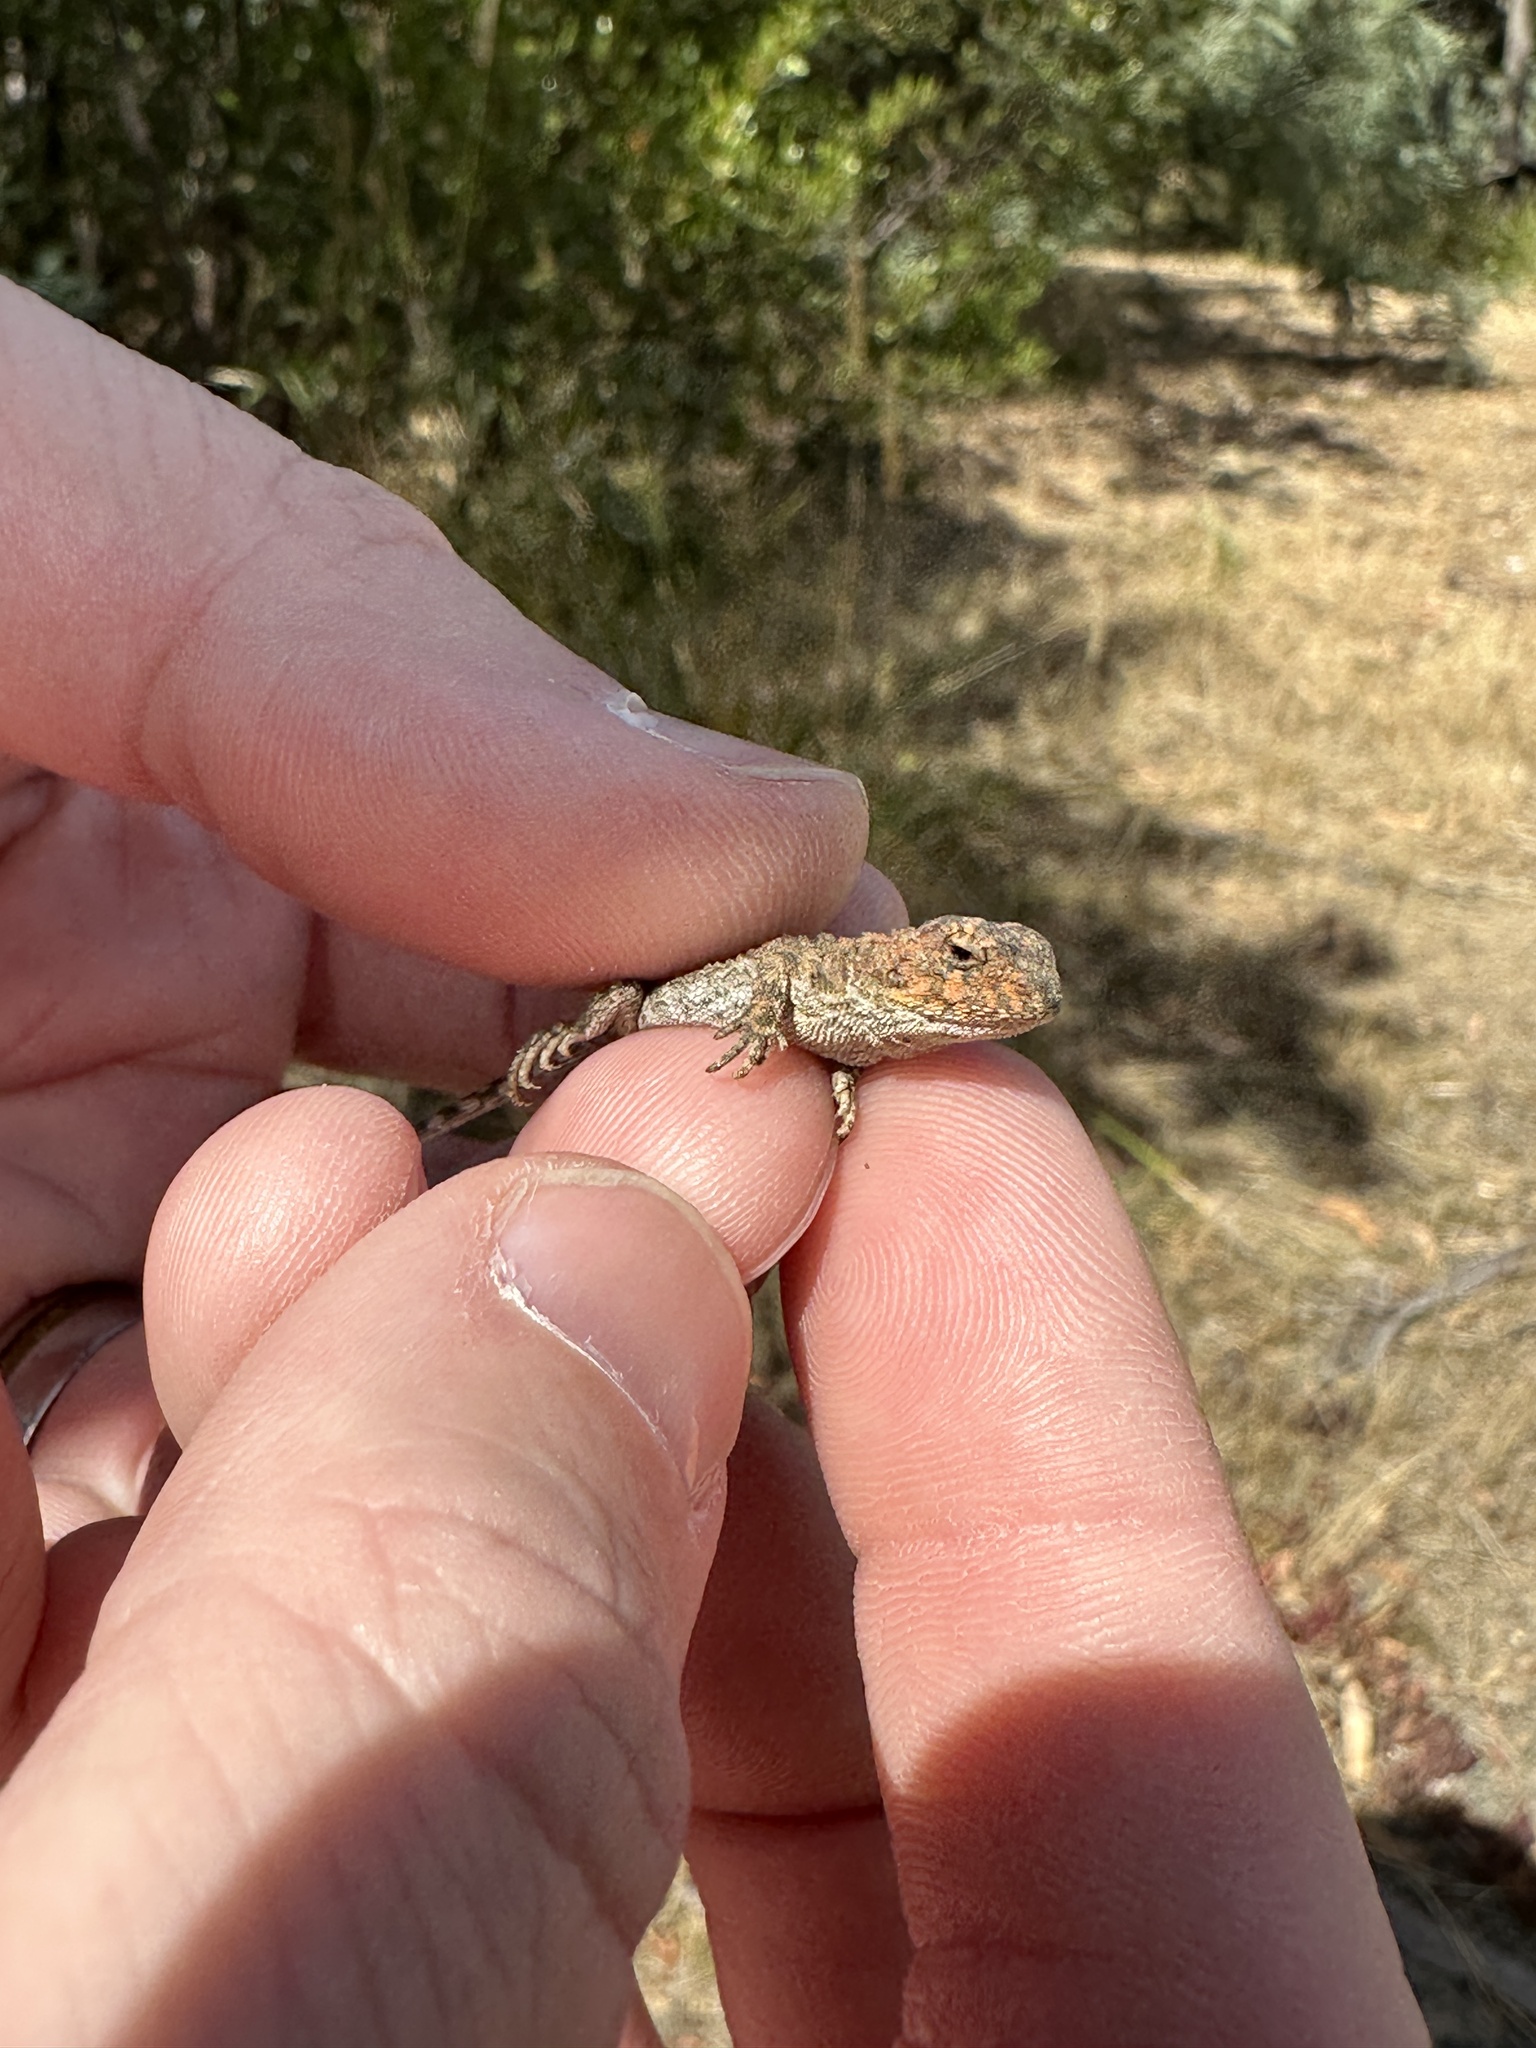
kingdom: Animalia
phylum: Chordata
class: Squamata
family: Agamidae
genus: Rankinia
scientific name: Rankinia diemensis
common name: Mountain dragon
